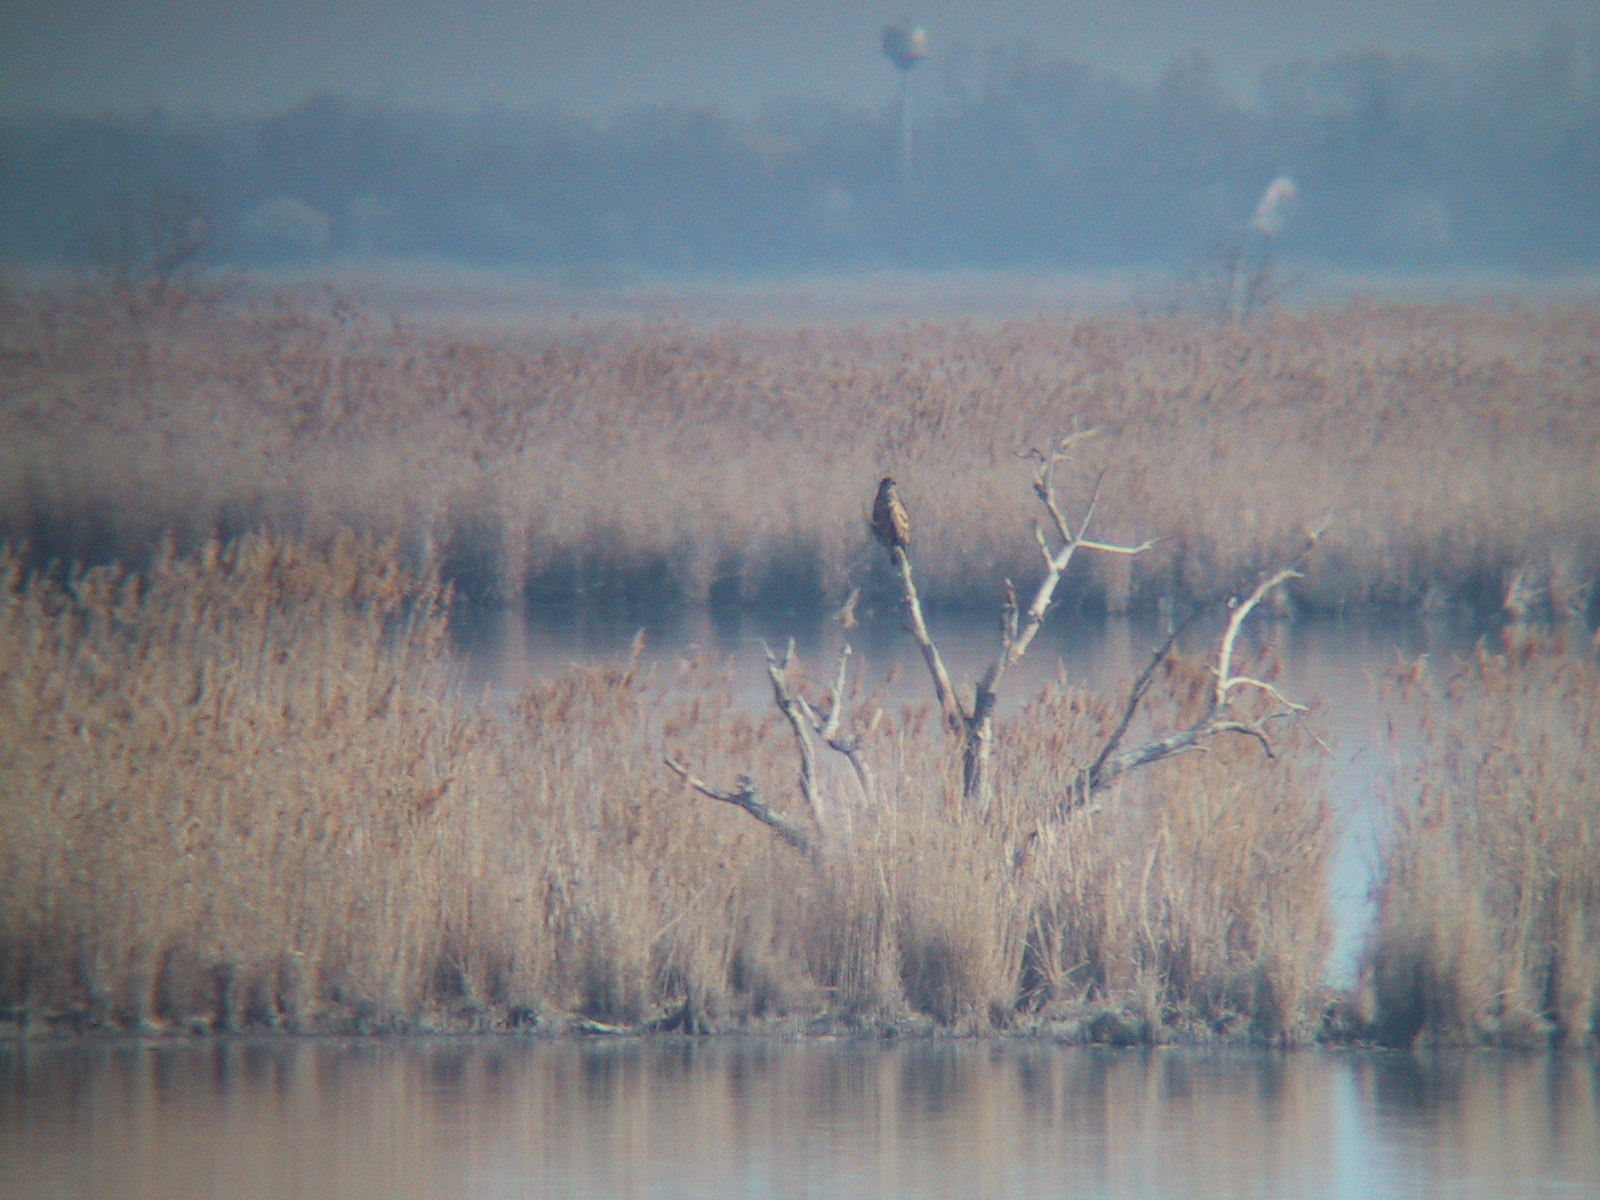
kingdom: Animalia
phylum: Chordata
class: Aves
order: Accipitriformes
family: Accipitridae
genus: Haliaeetus
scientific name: Haliaeetus albicilla
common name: White-tailed eagle
